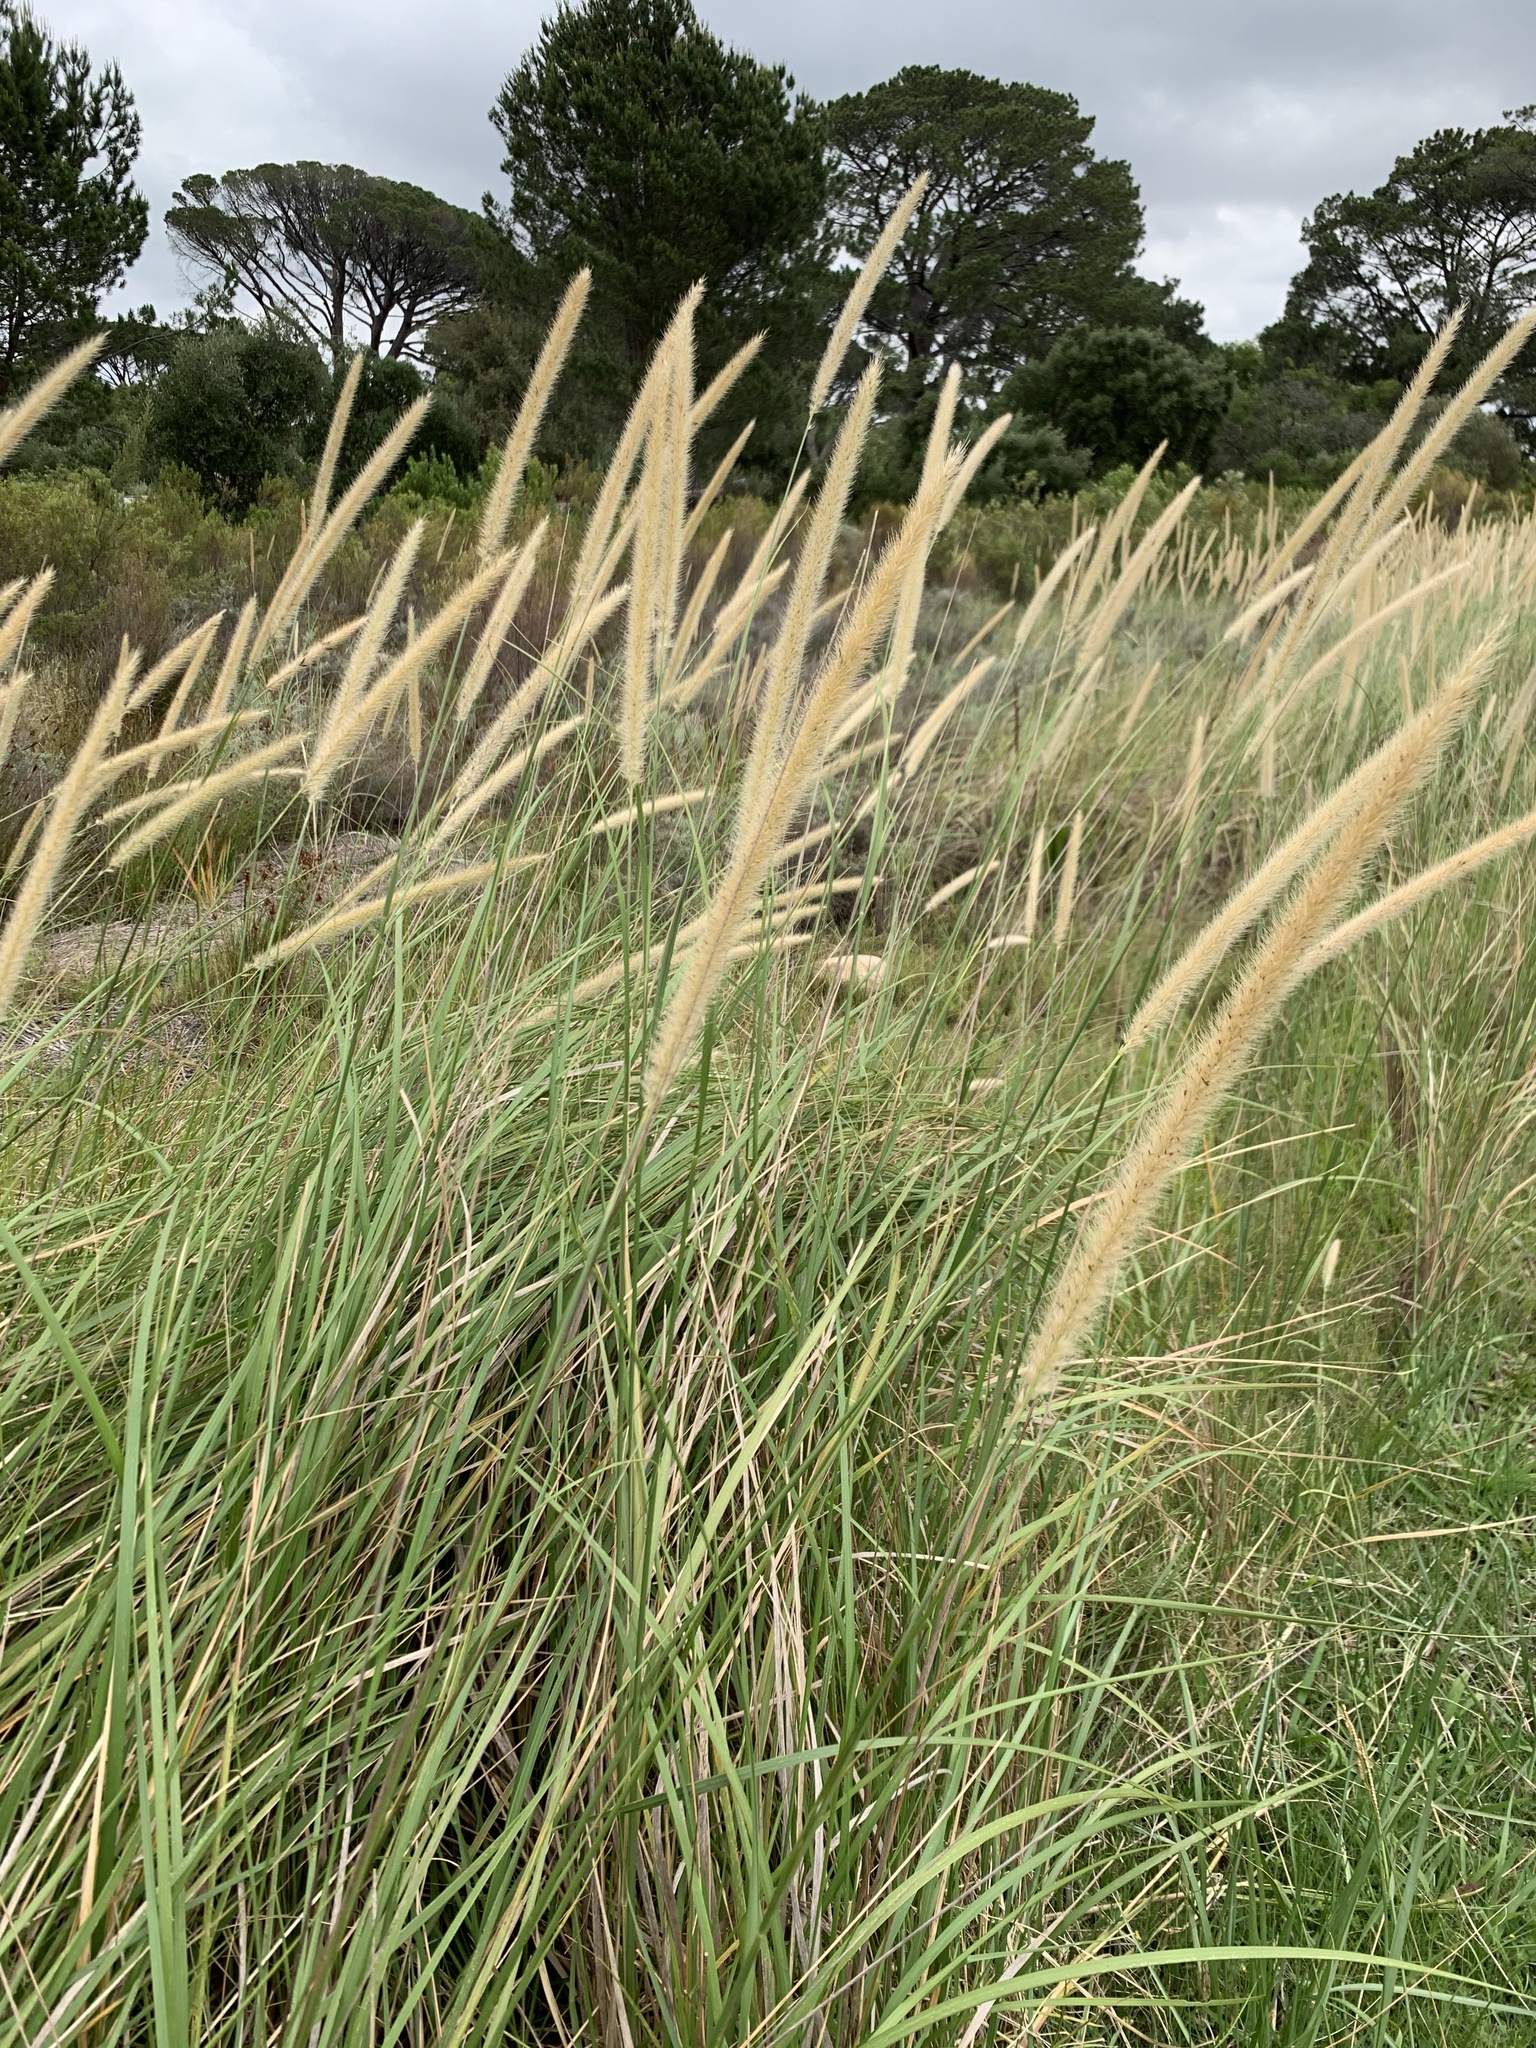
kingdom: Plantae
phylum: Tracheophyta
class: Liliopsida
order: Poales
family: Poaceae
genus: Cenchrus
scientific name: Cenchrus caudatus
